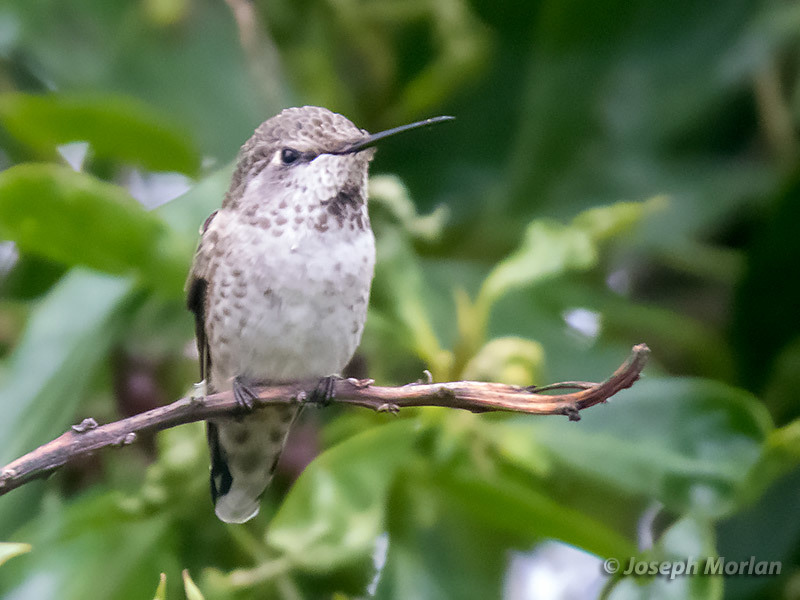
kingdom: Animalia
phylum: Chordata
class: Aves
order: Apodiformes
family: Trochilidae
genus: Calypte
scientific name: Calypte anna
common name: Anna's hummingbird
